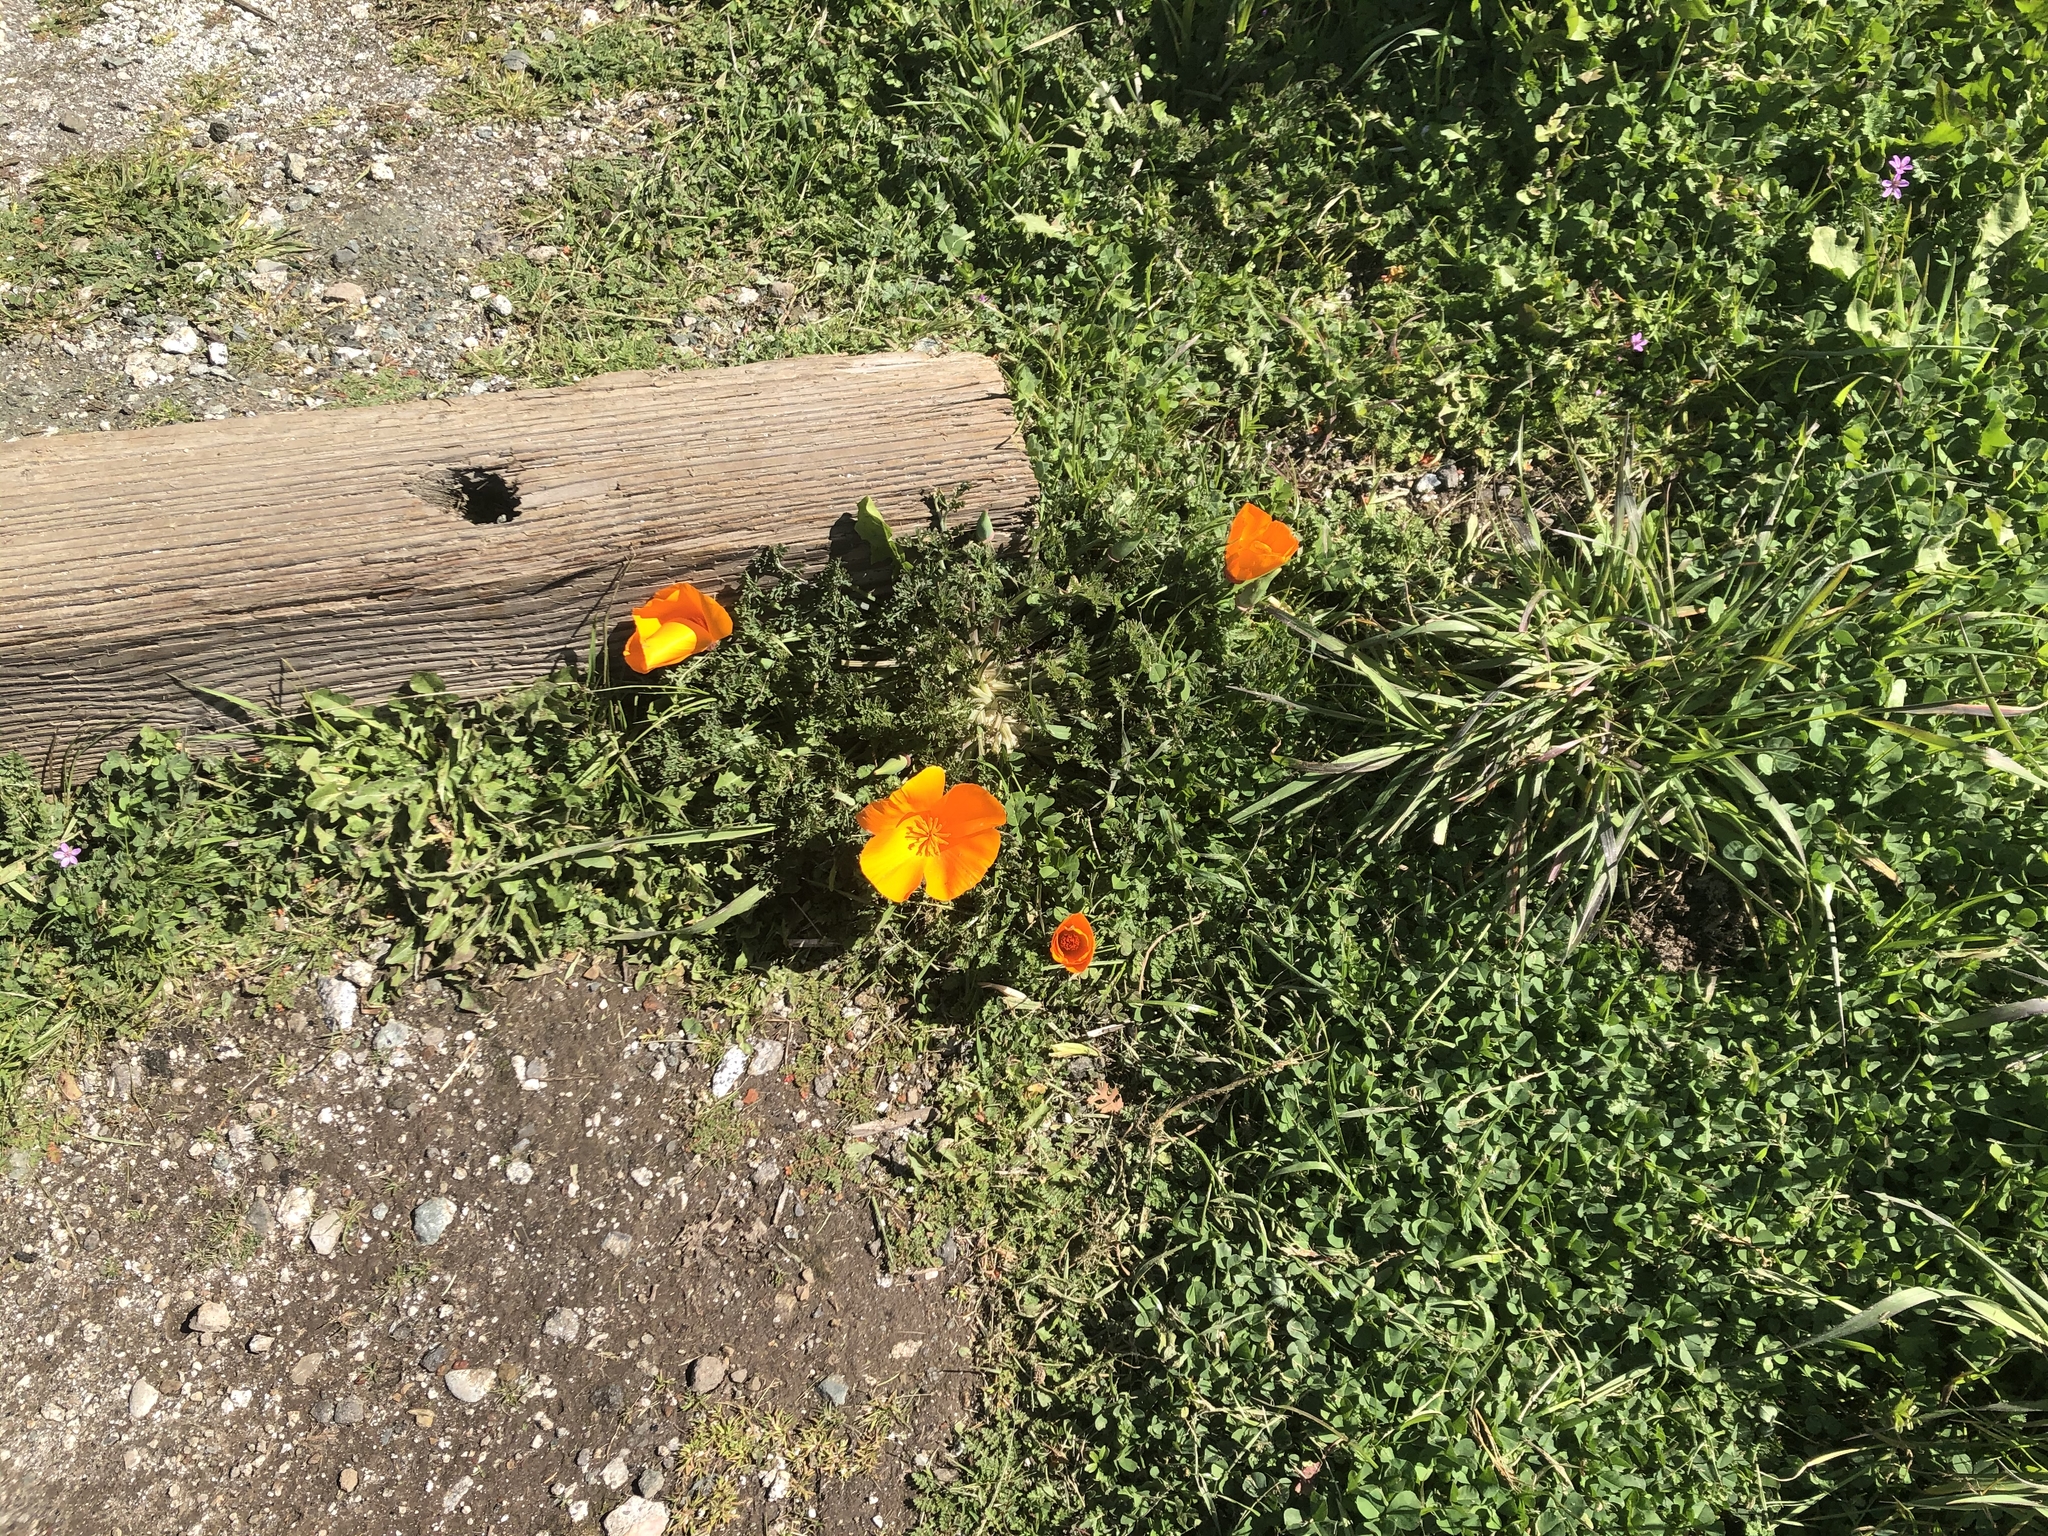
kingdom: Plantae
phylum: Tracheophyta
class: Magnoliopsida
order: Ranunculales
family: Papaveraceae
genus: Eschscholzia
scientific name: Eschscholzia californica
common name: California poppy
